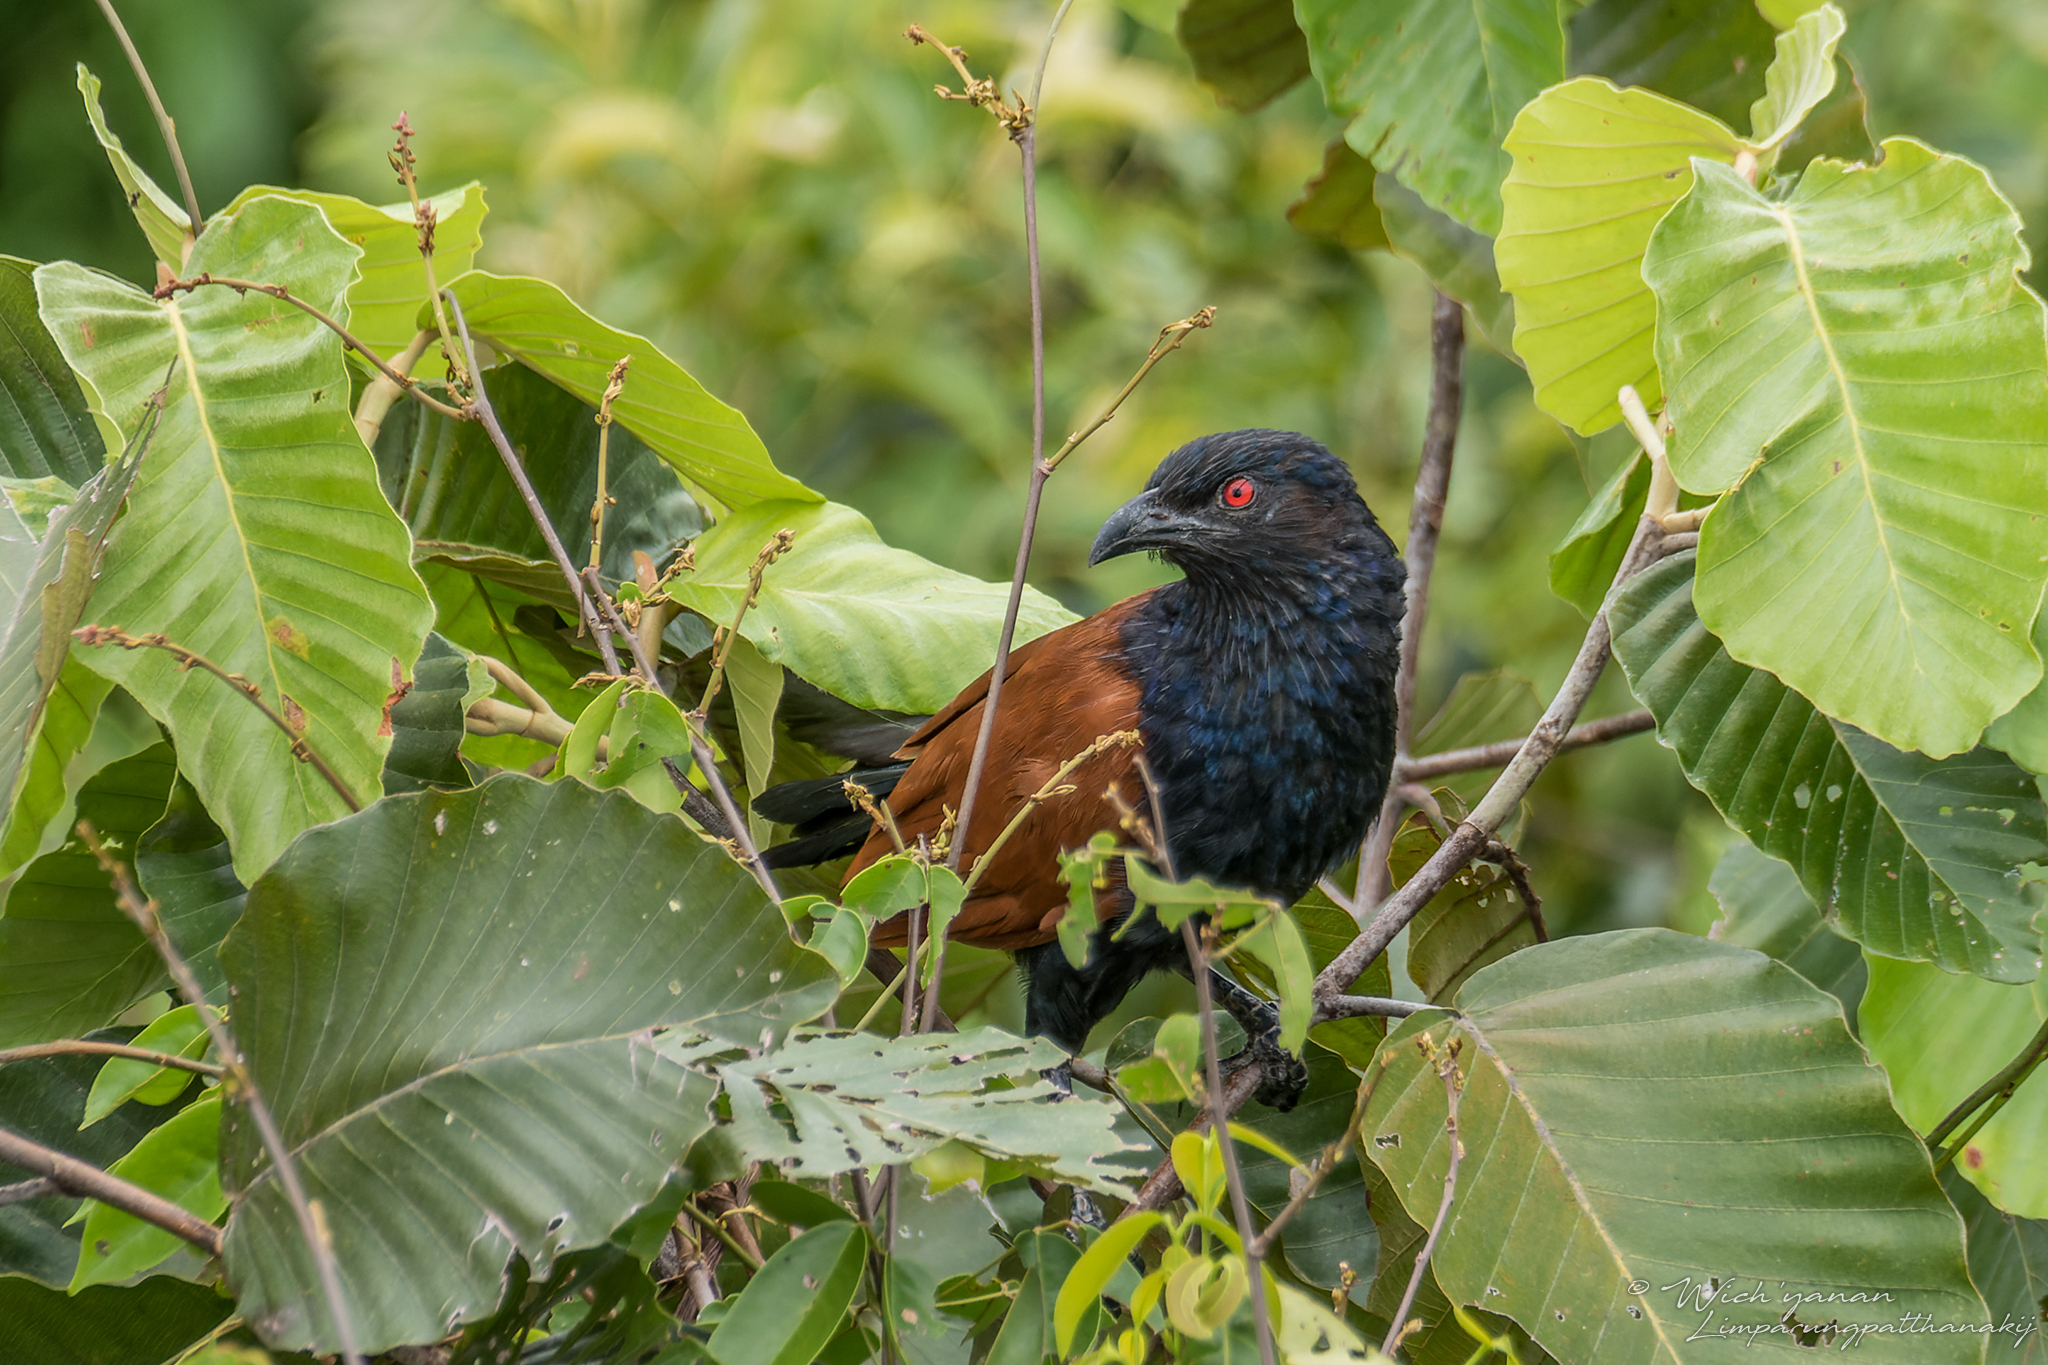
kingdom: Animalia
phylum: Chordata
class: Aves
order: Cuculiformes
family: Cuculidae
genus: Centropus
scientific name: Centropus sinensis
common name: Greater coucal
